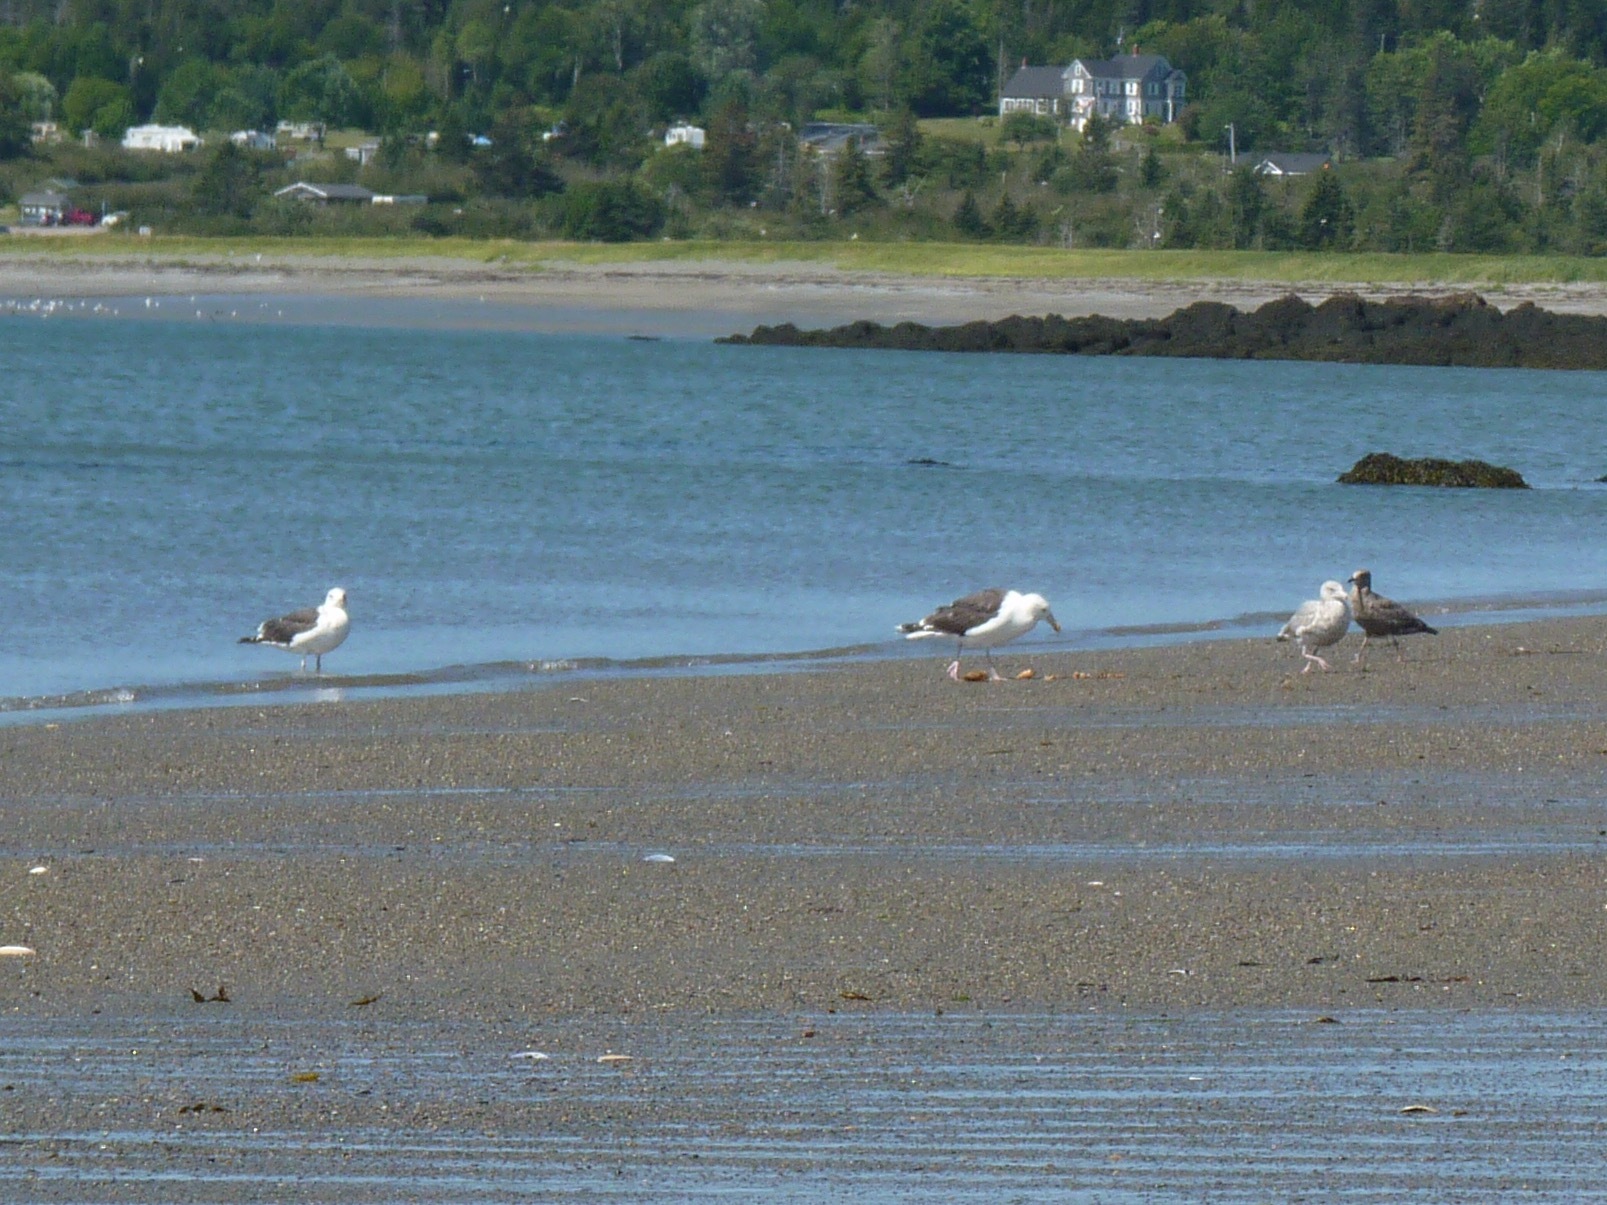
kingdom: Animalia
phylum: Chordata
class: Aves
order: Charadriiformes
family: Laridae
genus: Larus
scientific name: Larus marinus
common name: Great black-backed gull
